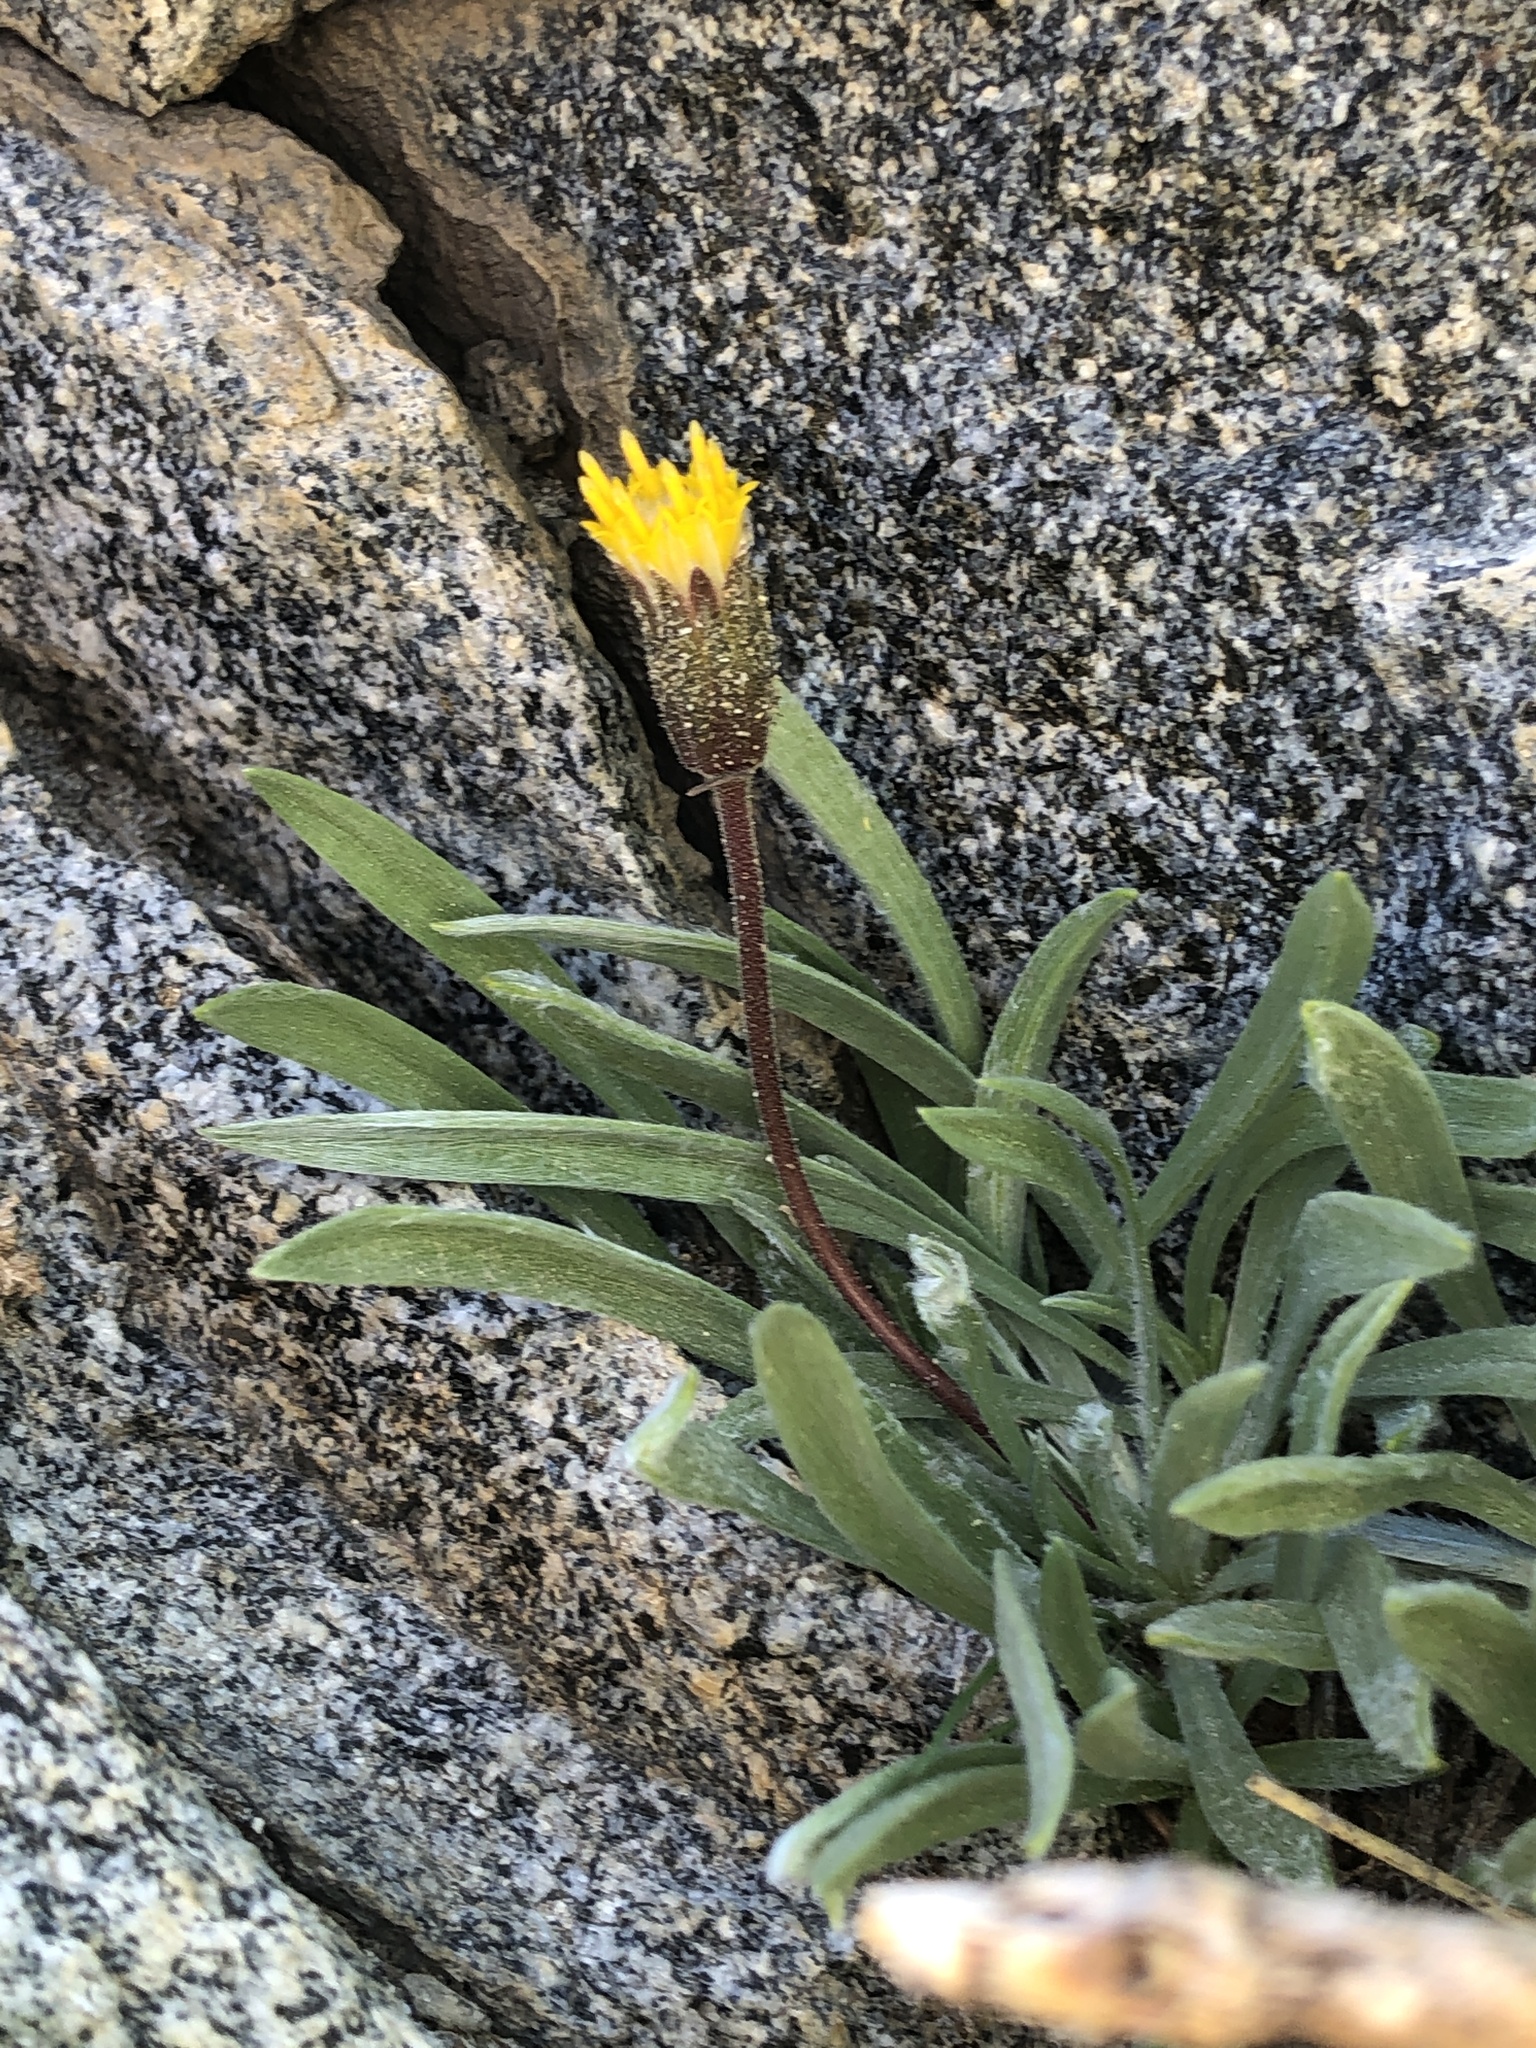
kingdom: Plantae
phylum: Tracheophyta
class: Magnoliopsida
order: Asterales
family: Asteraceae
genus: Raillardella
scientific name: Raillardella argentea
